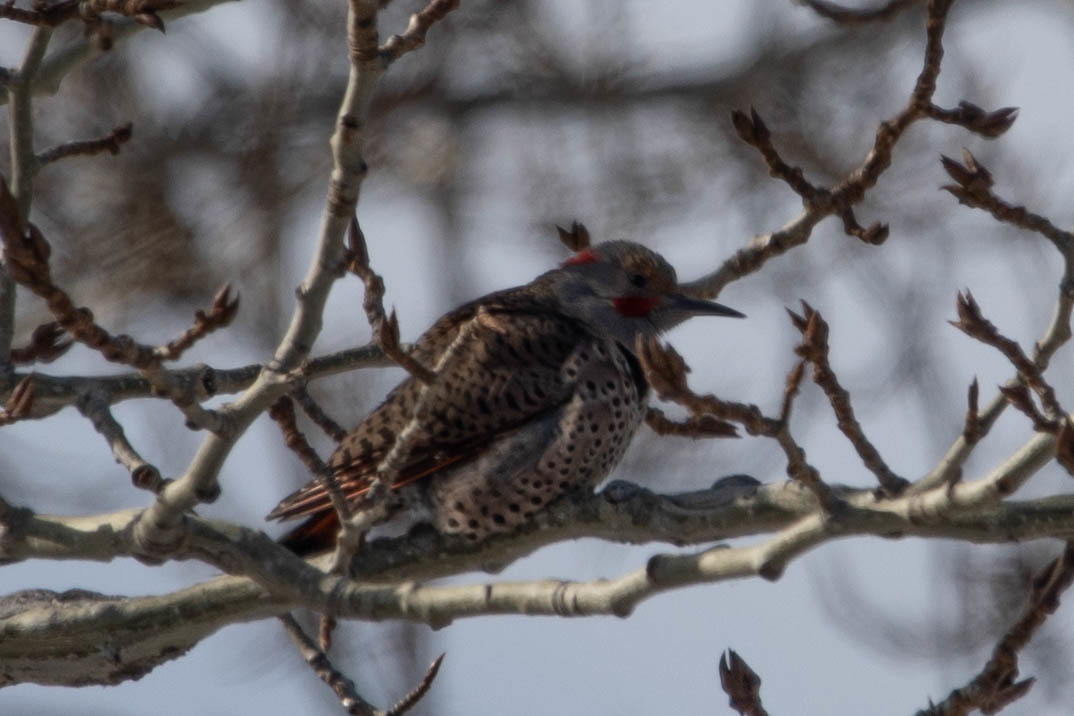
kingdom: Animalia
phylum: Chordata
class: Aves
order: Piciformes
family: Picidae
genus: Colaptes
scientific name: Colaptes
